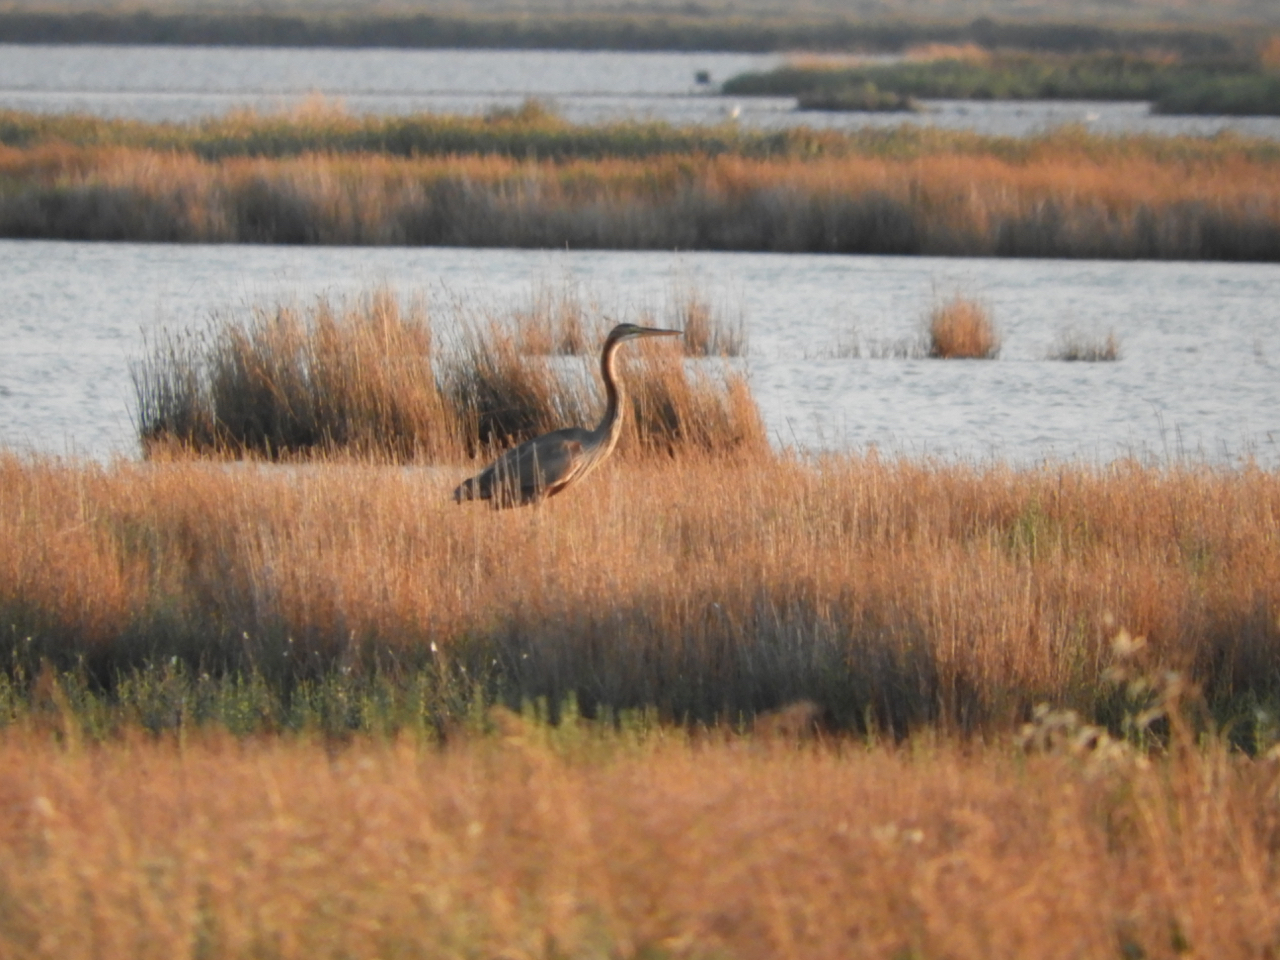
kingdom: Animalia
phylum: Chordata
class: Aves
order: Pelecaniformes
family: Ardeidae
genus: Ardea
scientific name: Ardea purpurea
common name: Purple heron
